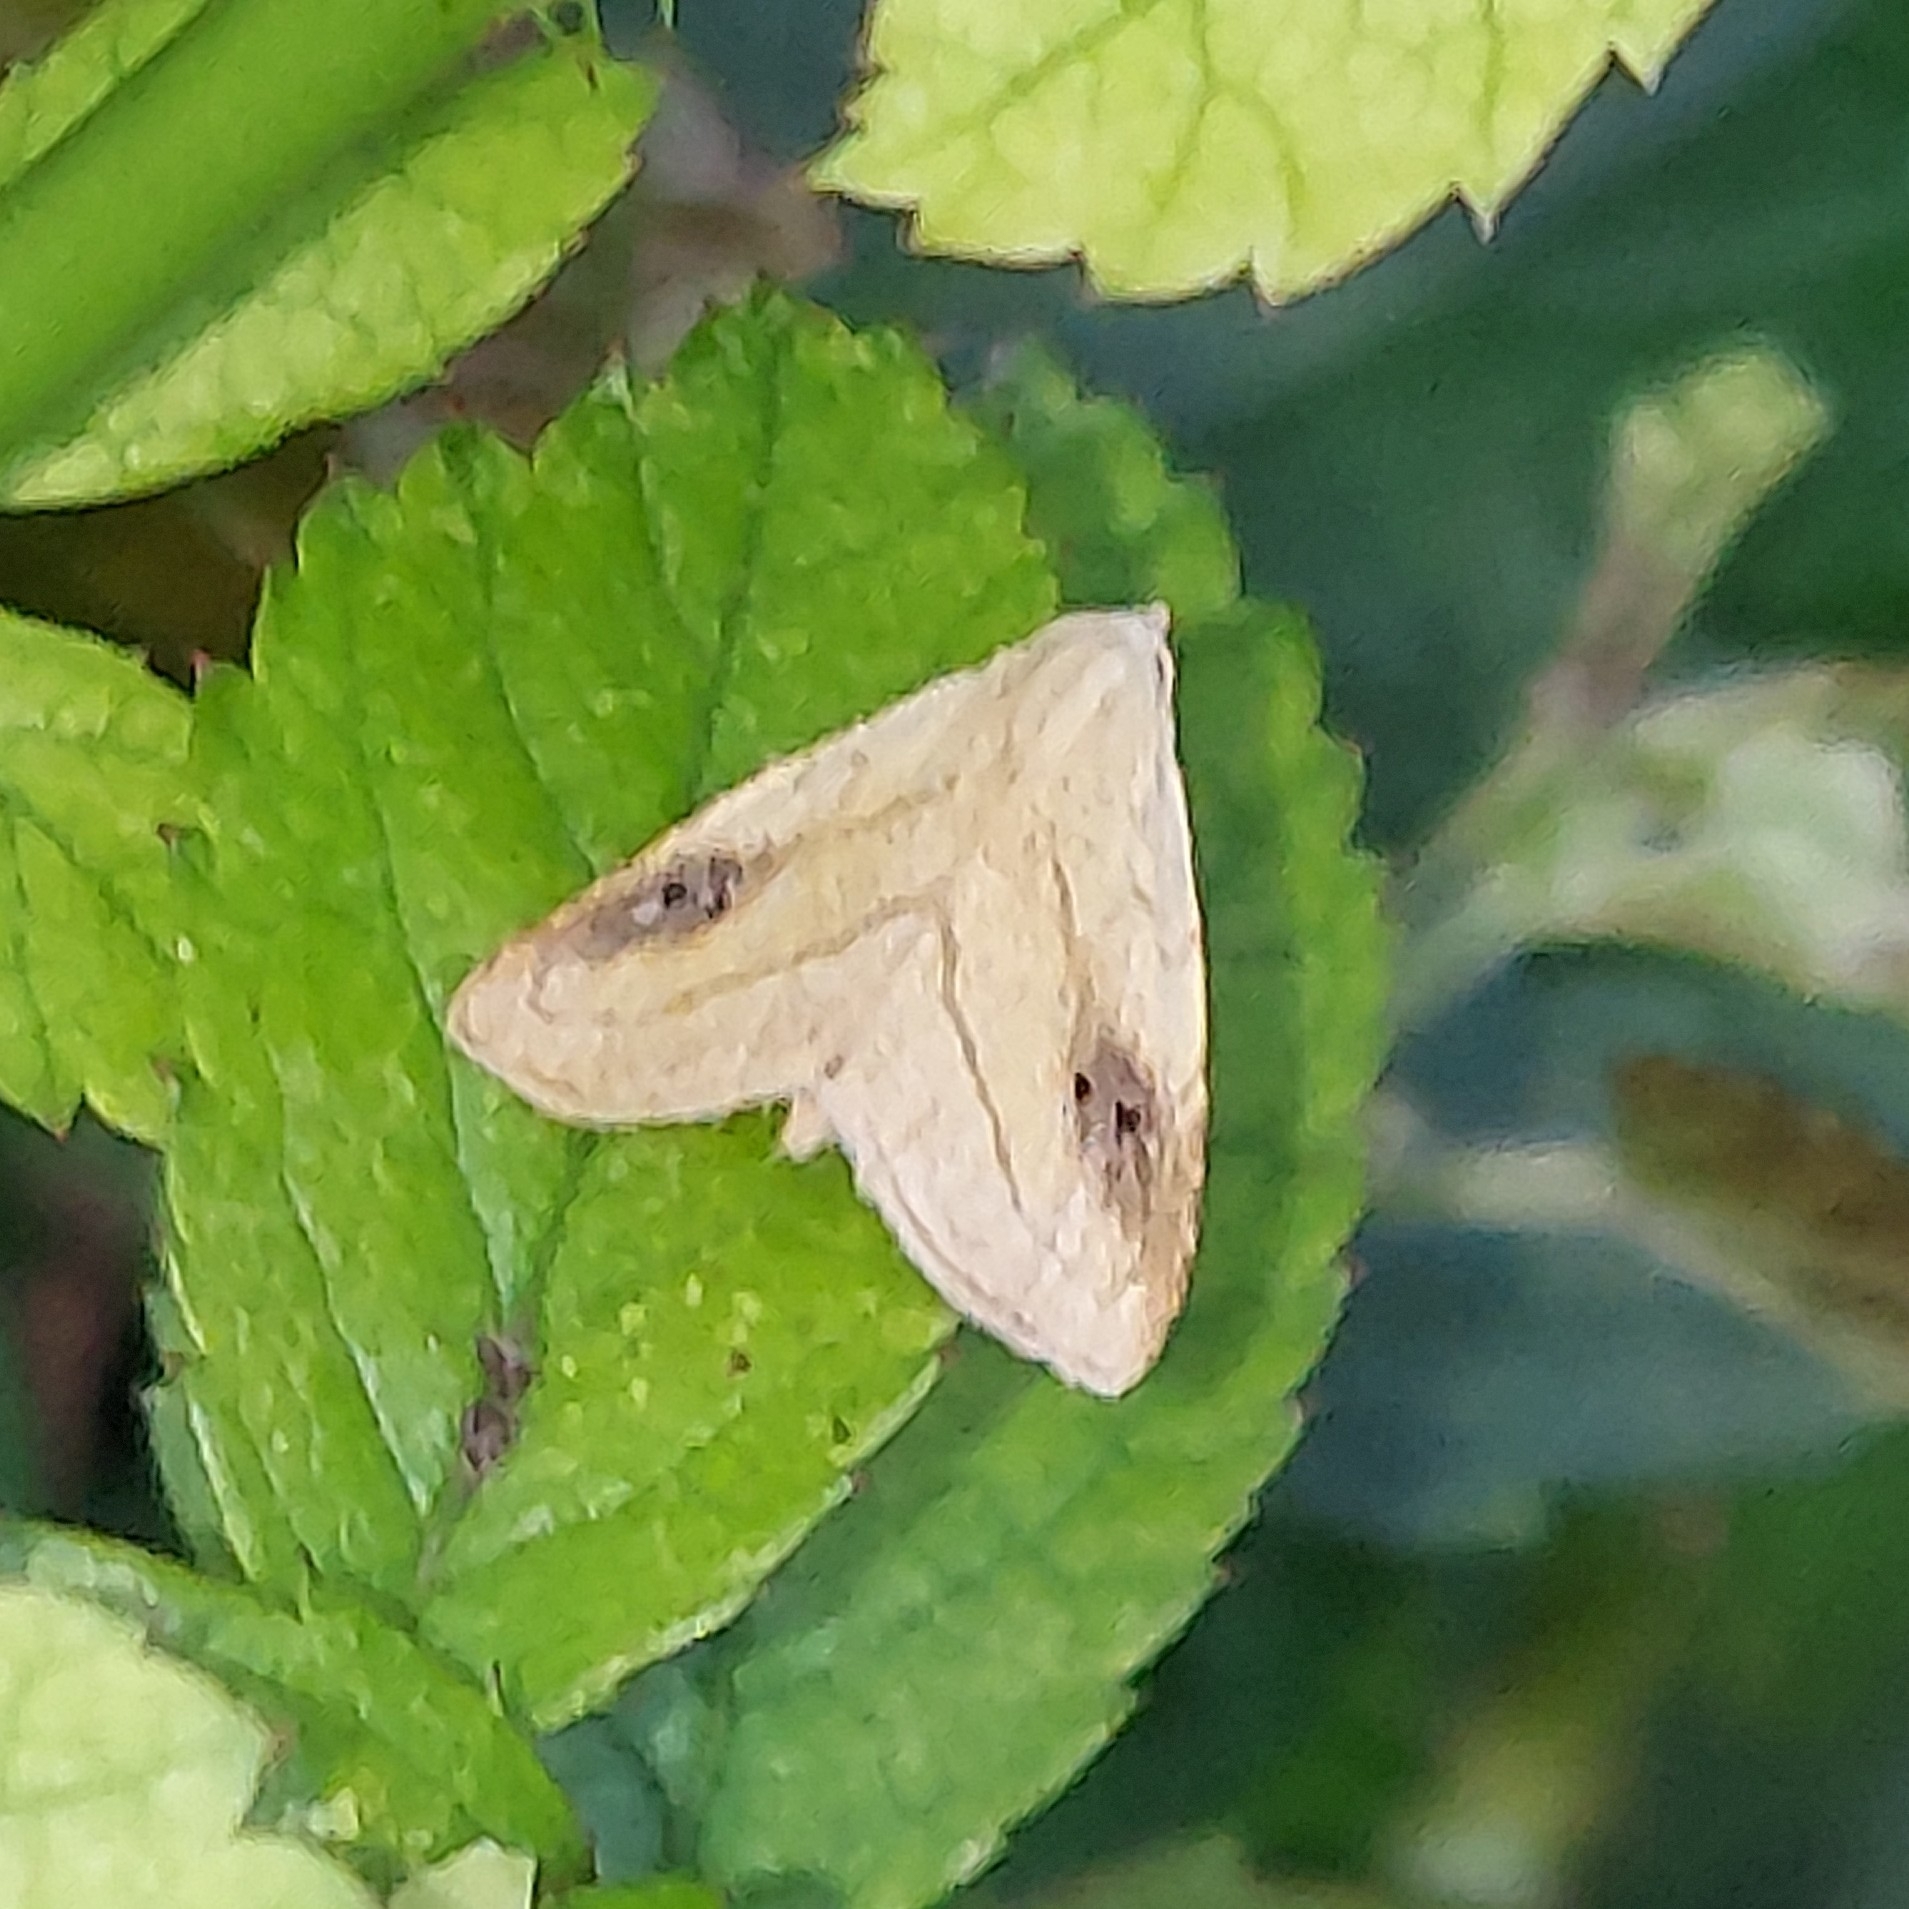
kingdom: Animalia
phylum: Arthropoda
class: Insecta
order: Lepidoptera
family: Erebidae
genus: Rivula
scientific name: Rivula propinqualis
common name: Spotted grass moth
